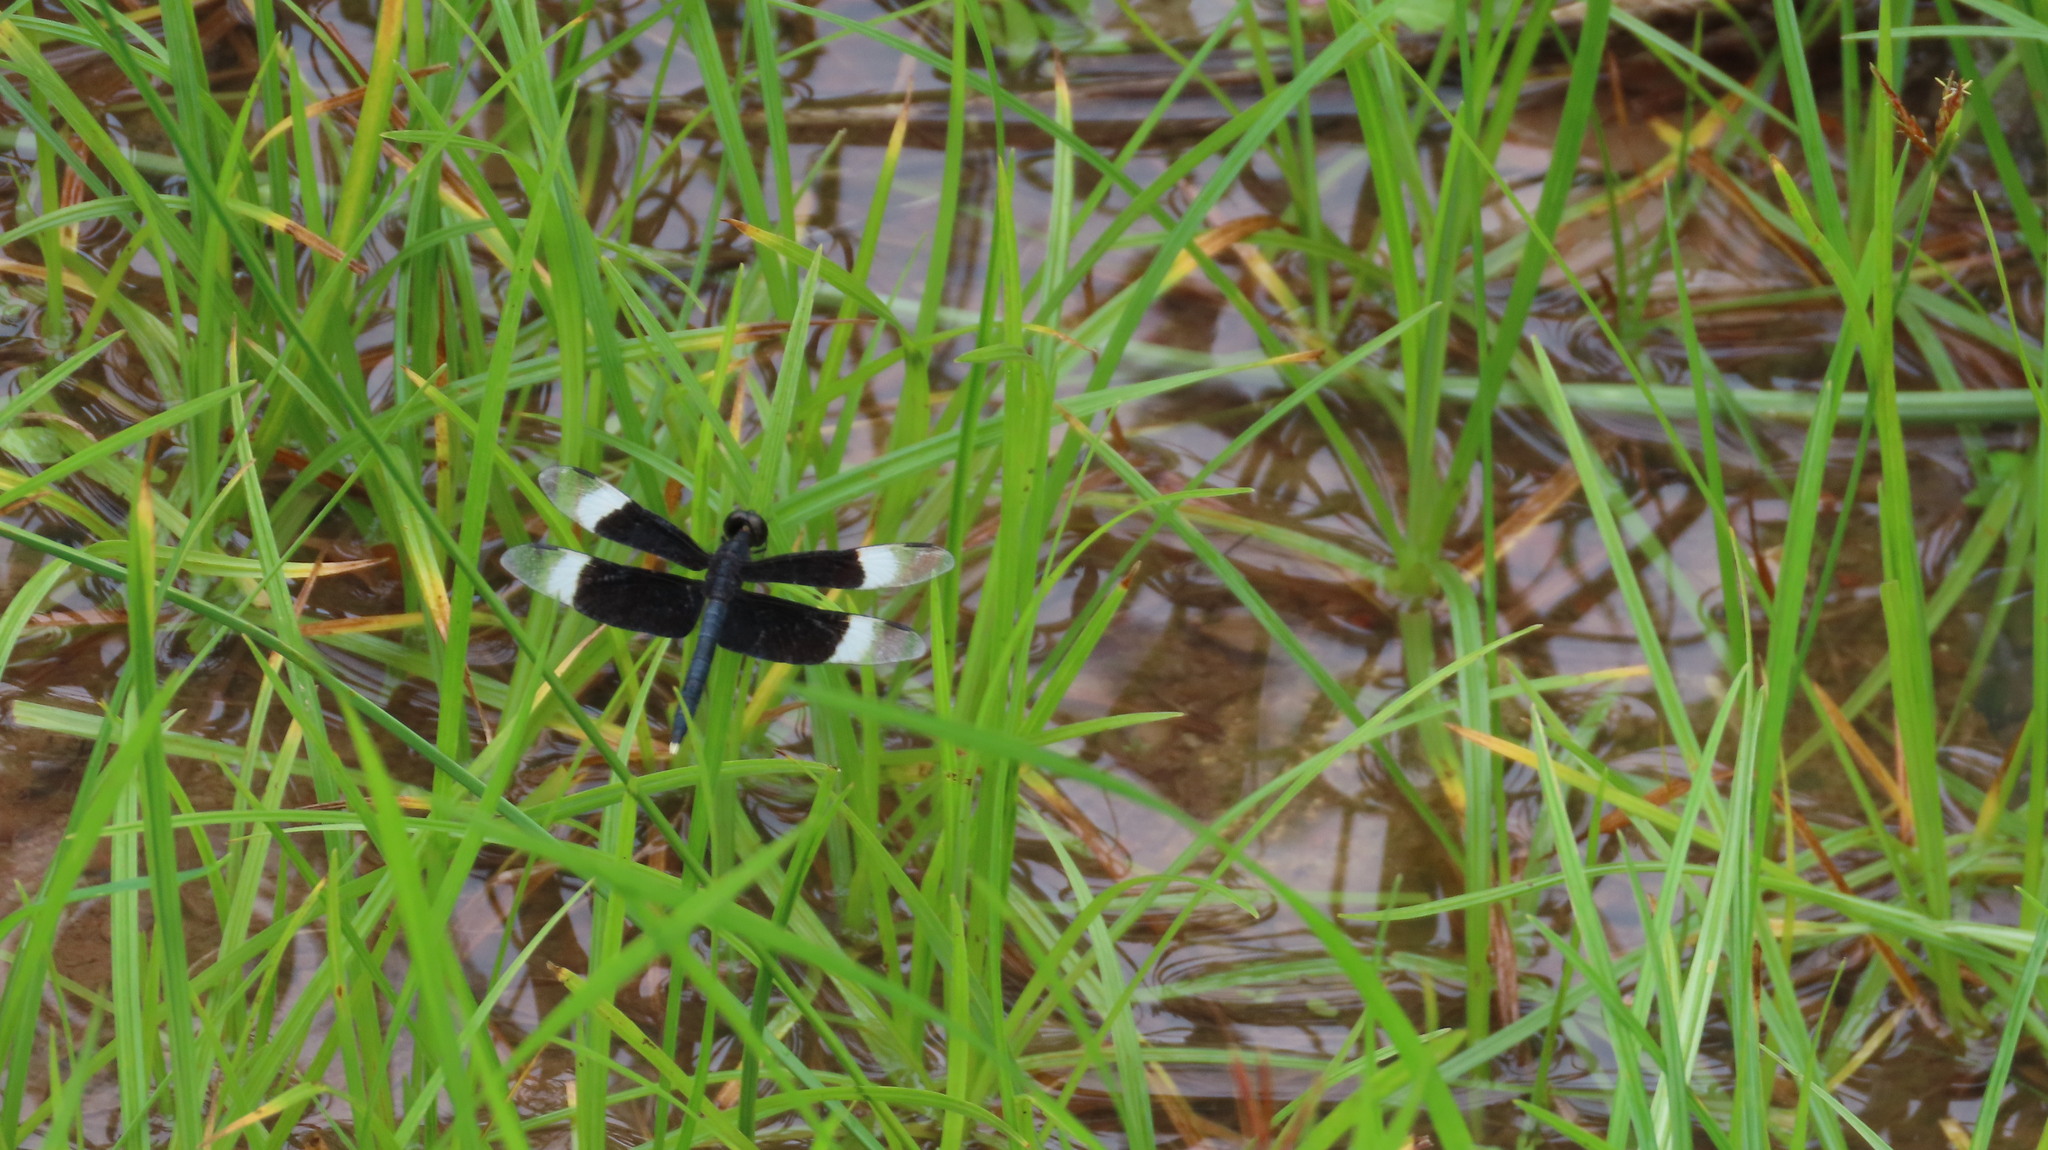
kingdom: Animalia
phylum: Arthropoda
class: Insecta
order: Odonata
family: Libellulidae
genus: Neurothemis
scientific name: Neurothemis tullia
